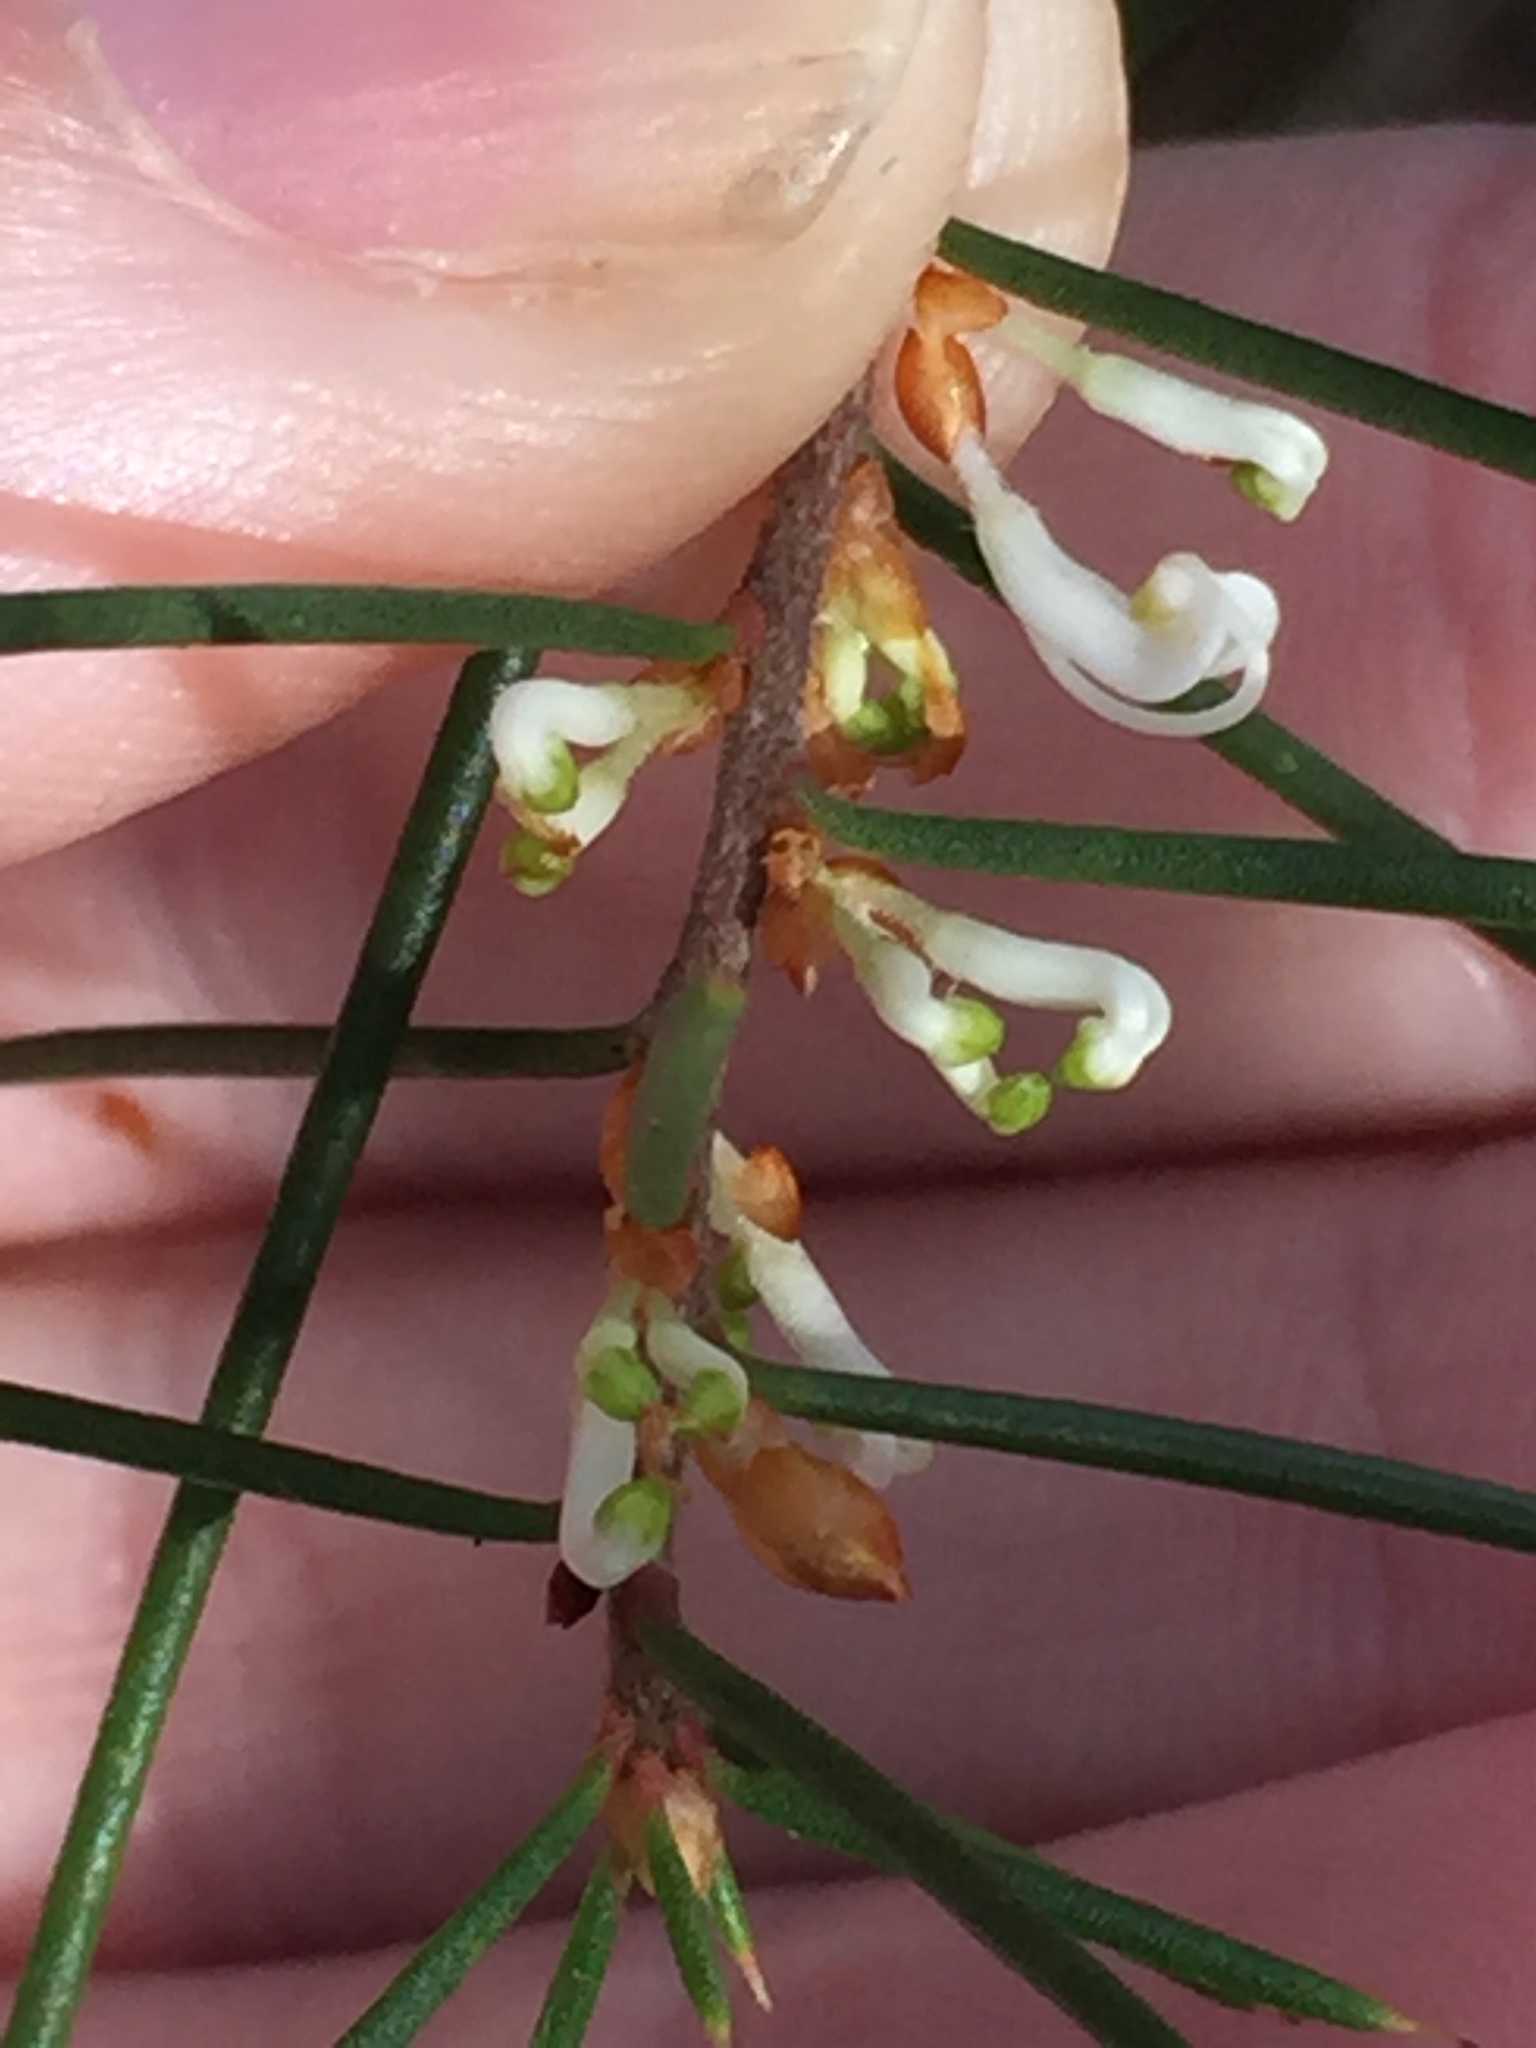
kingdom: Plantae
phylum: Tracheophyta
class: Magnoliopsida
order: Proteales
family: Proteaceae
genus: Hakea
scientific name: Hakea sericea
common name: Needle bush
